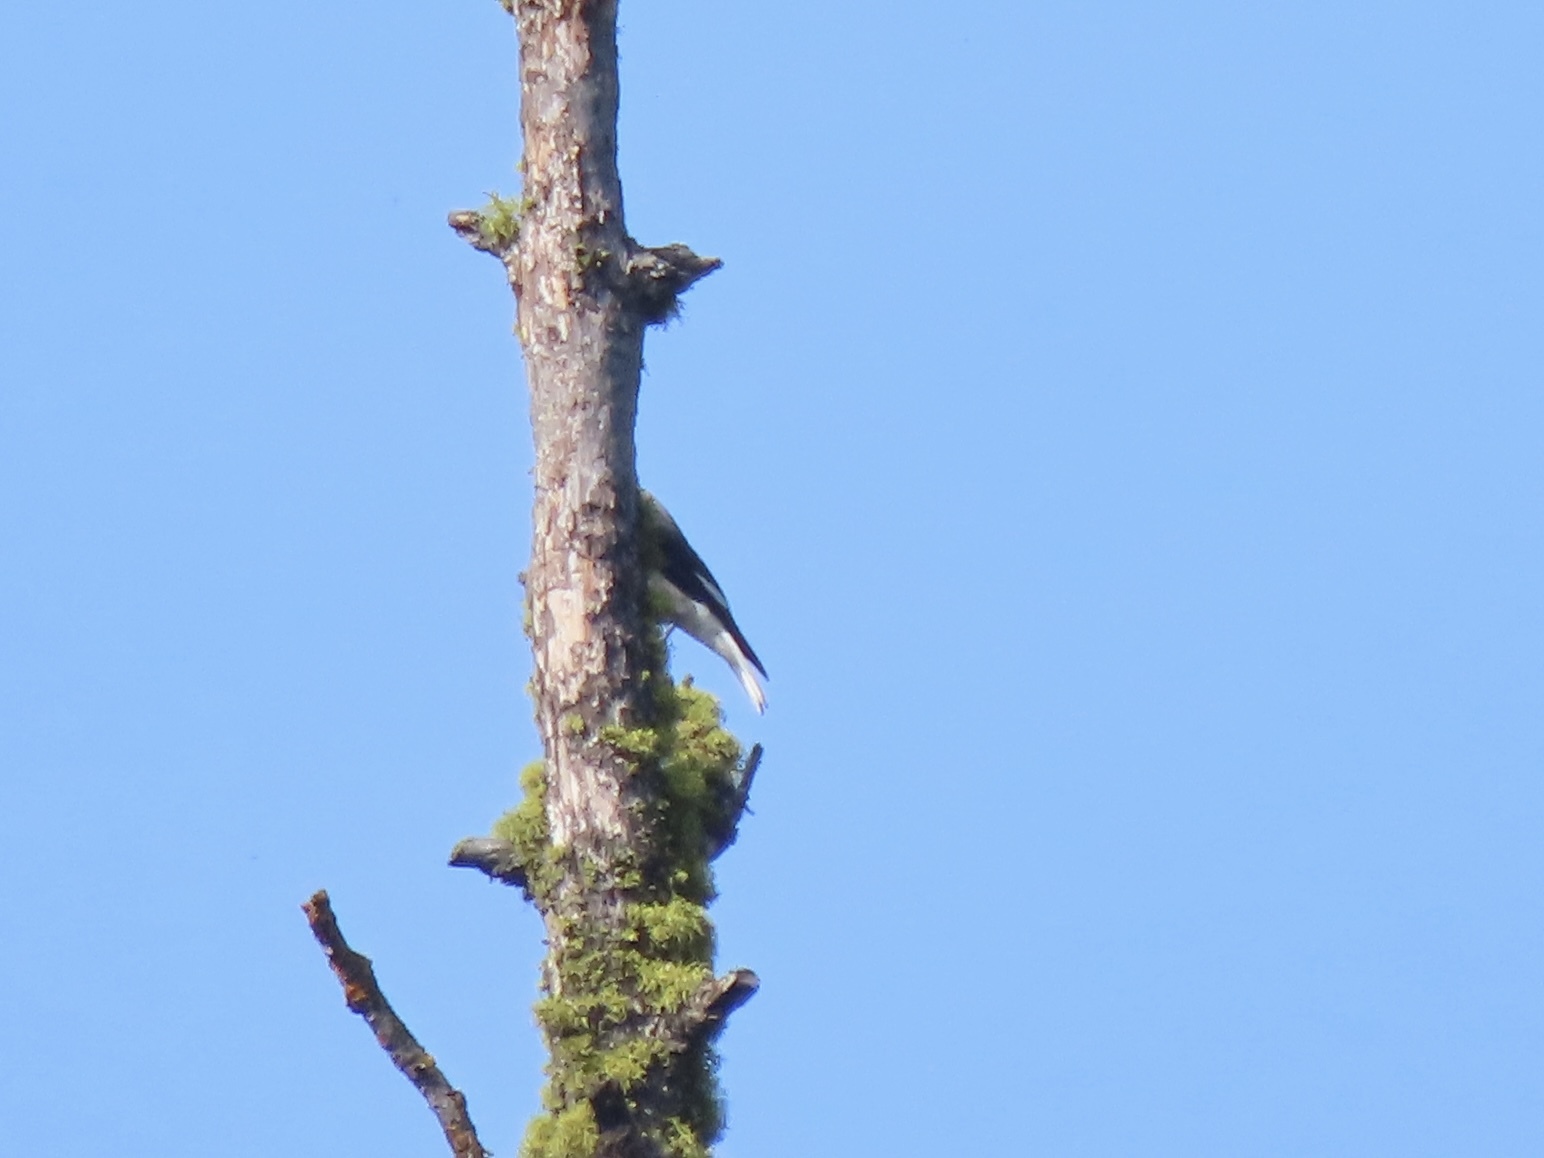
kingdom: Animalia
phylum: Chordata
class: Aves
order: Passeriformes
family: Corvidae
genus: Nucifraga
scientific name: Nucifraga columbiana
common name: Clark's nutcracker
